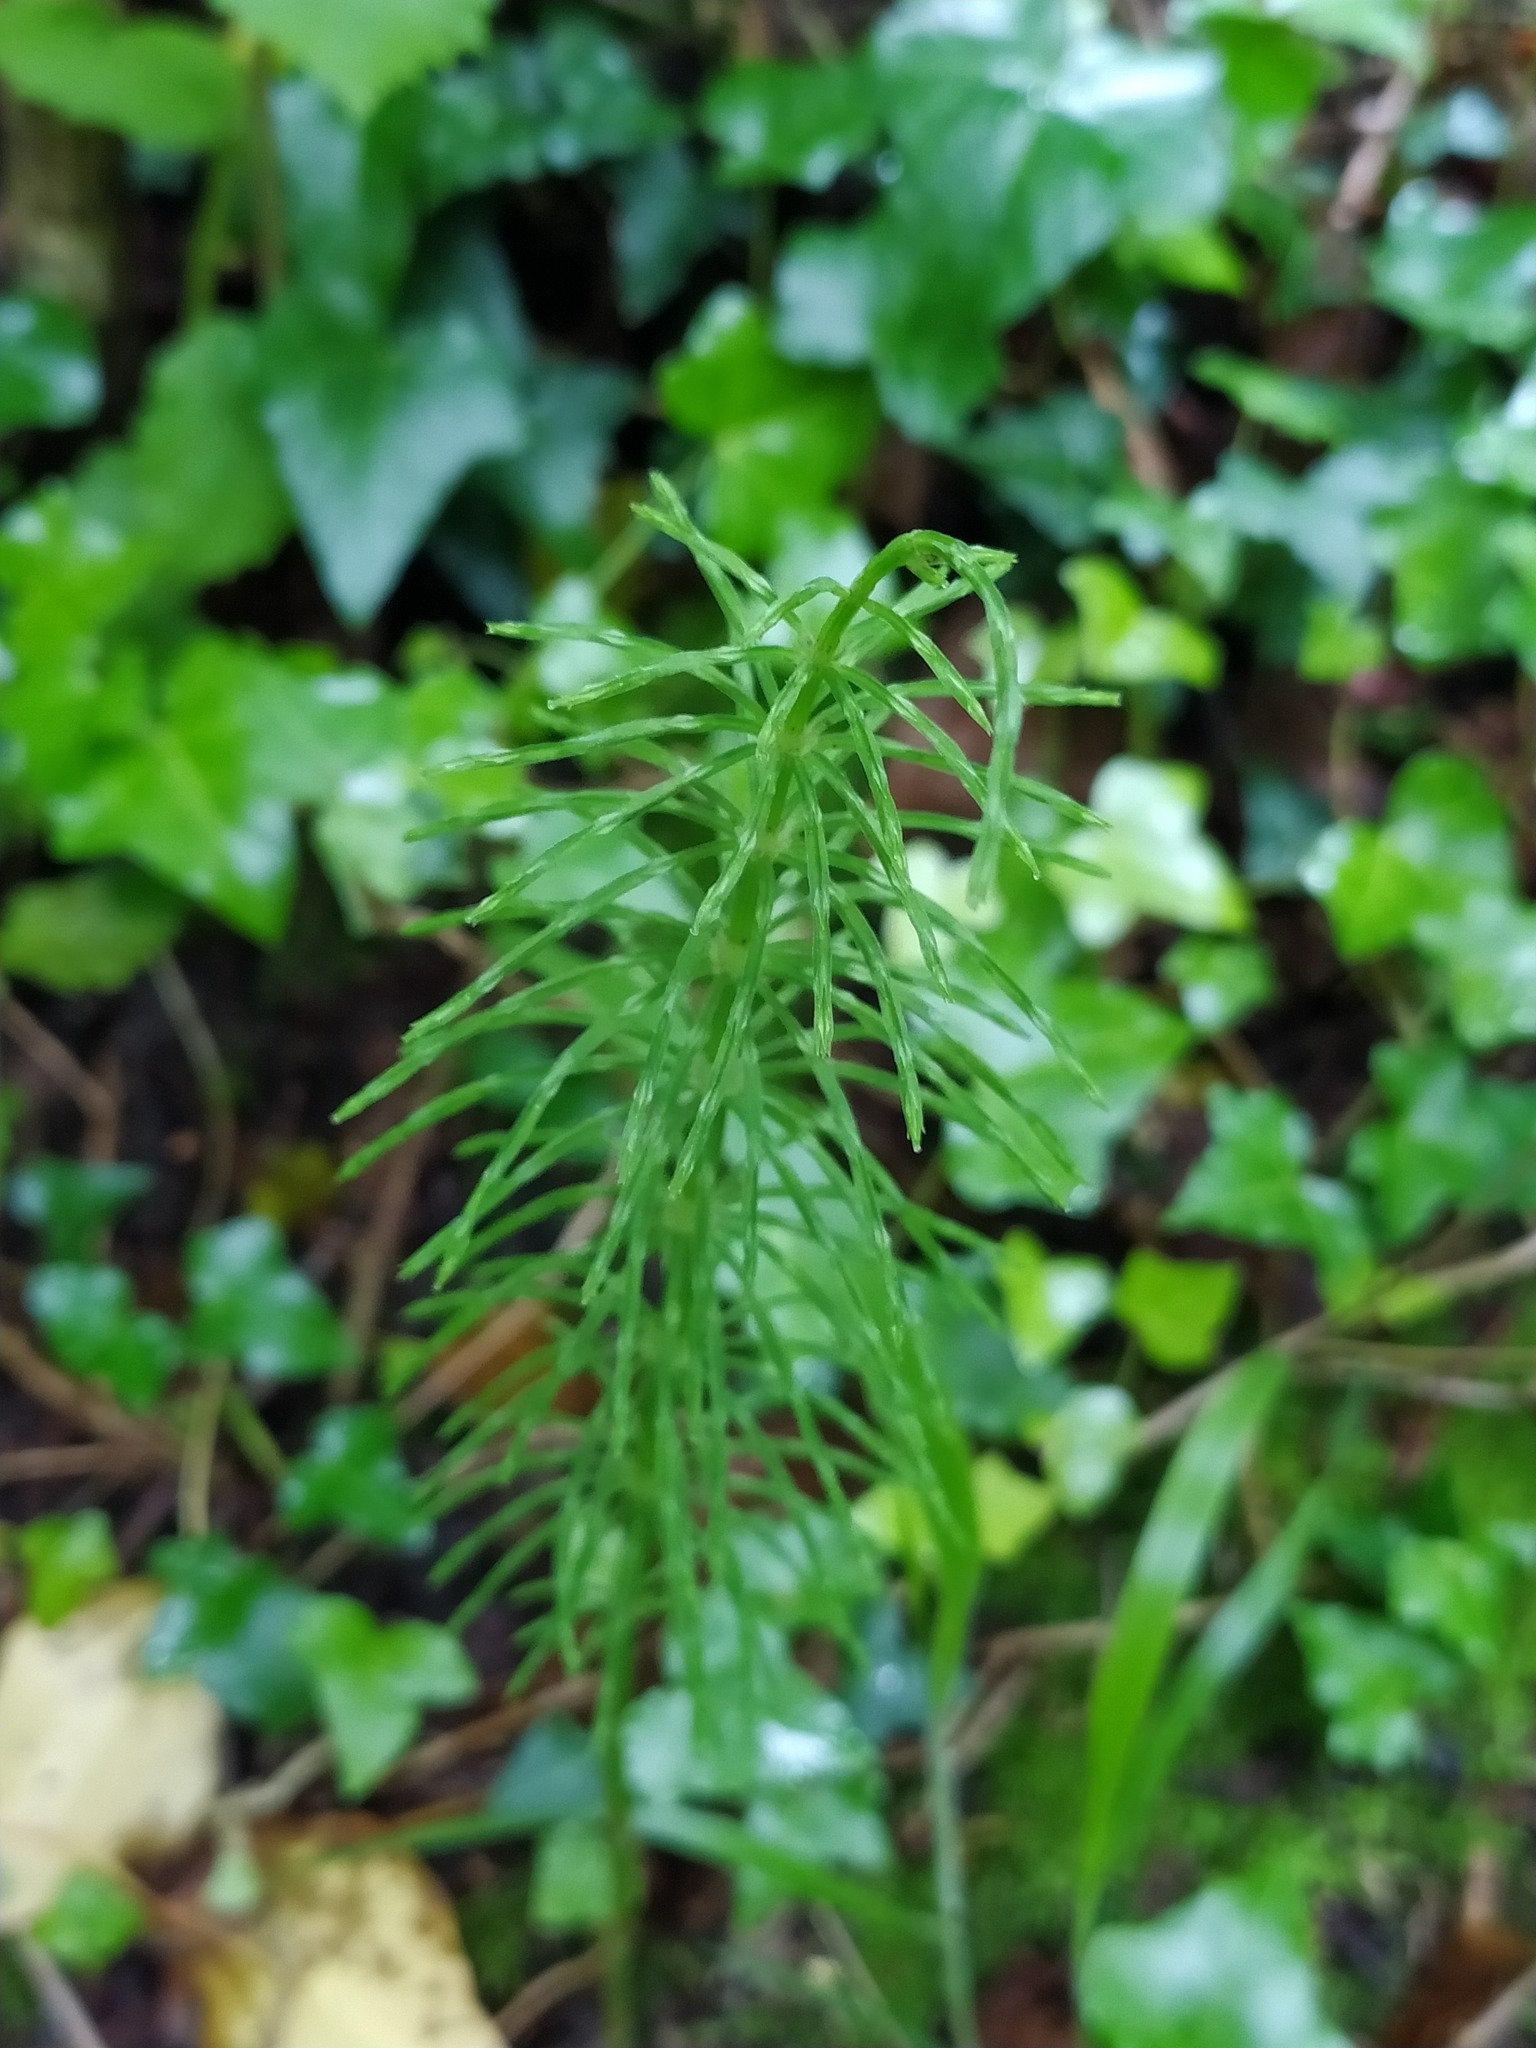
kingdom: Plantae
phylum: Tracheophyta
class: Polypodiopsida
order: Equisetales
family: Equisetaceae
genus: Equisetum
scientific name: Equisetum arvense
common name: Field horsetail
